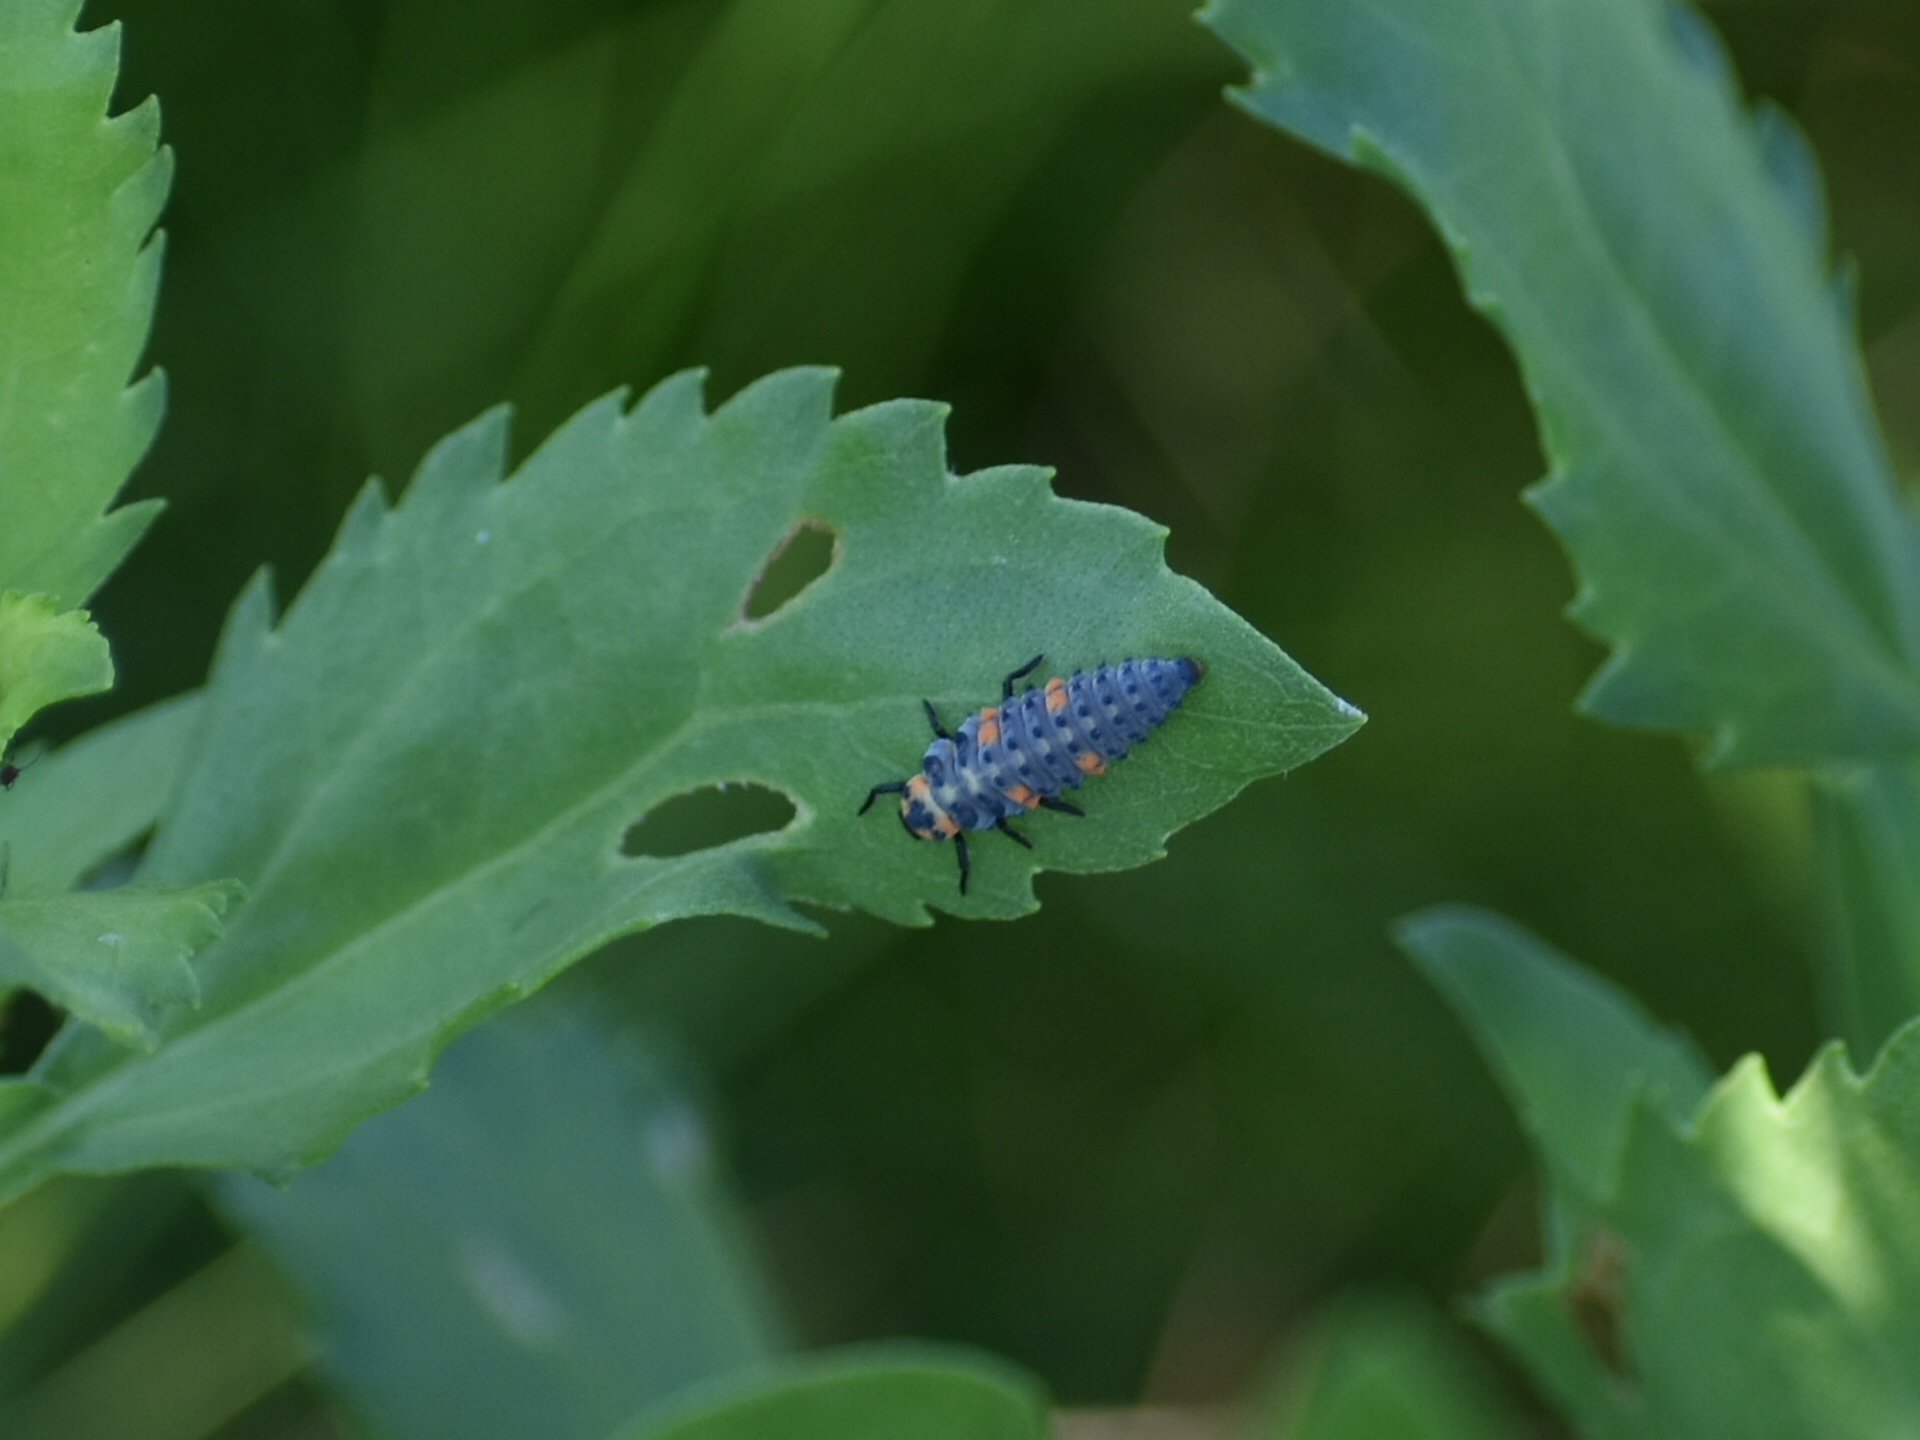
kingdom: Animalia
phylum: Arthropoda
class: Insecta
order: Coleoptera
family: Coccinellidae
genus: Coccinella
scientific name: Coccinella septempunctata
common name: Sevenspotted lady beetle
